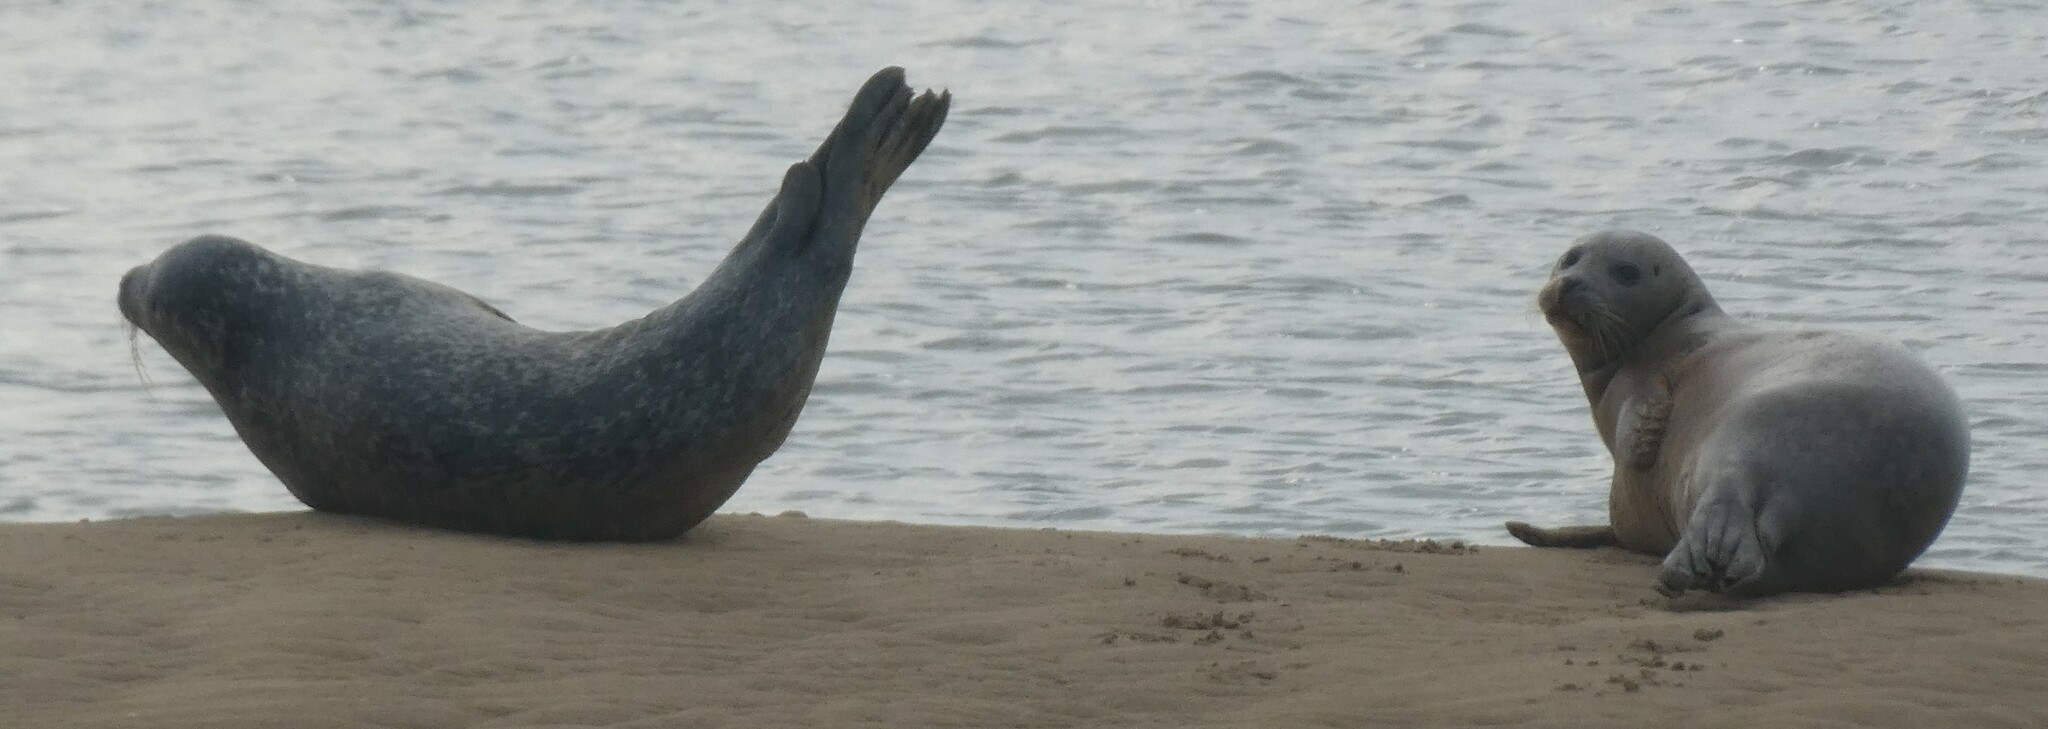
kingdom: Animalia
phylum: Chordata
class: Mammalia
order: Carnivora
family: Phocidae
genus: Phoca
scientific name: Phoca vitulina
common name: Harbor seal
